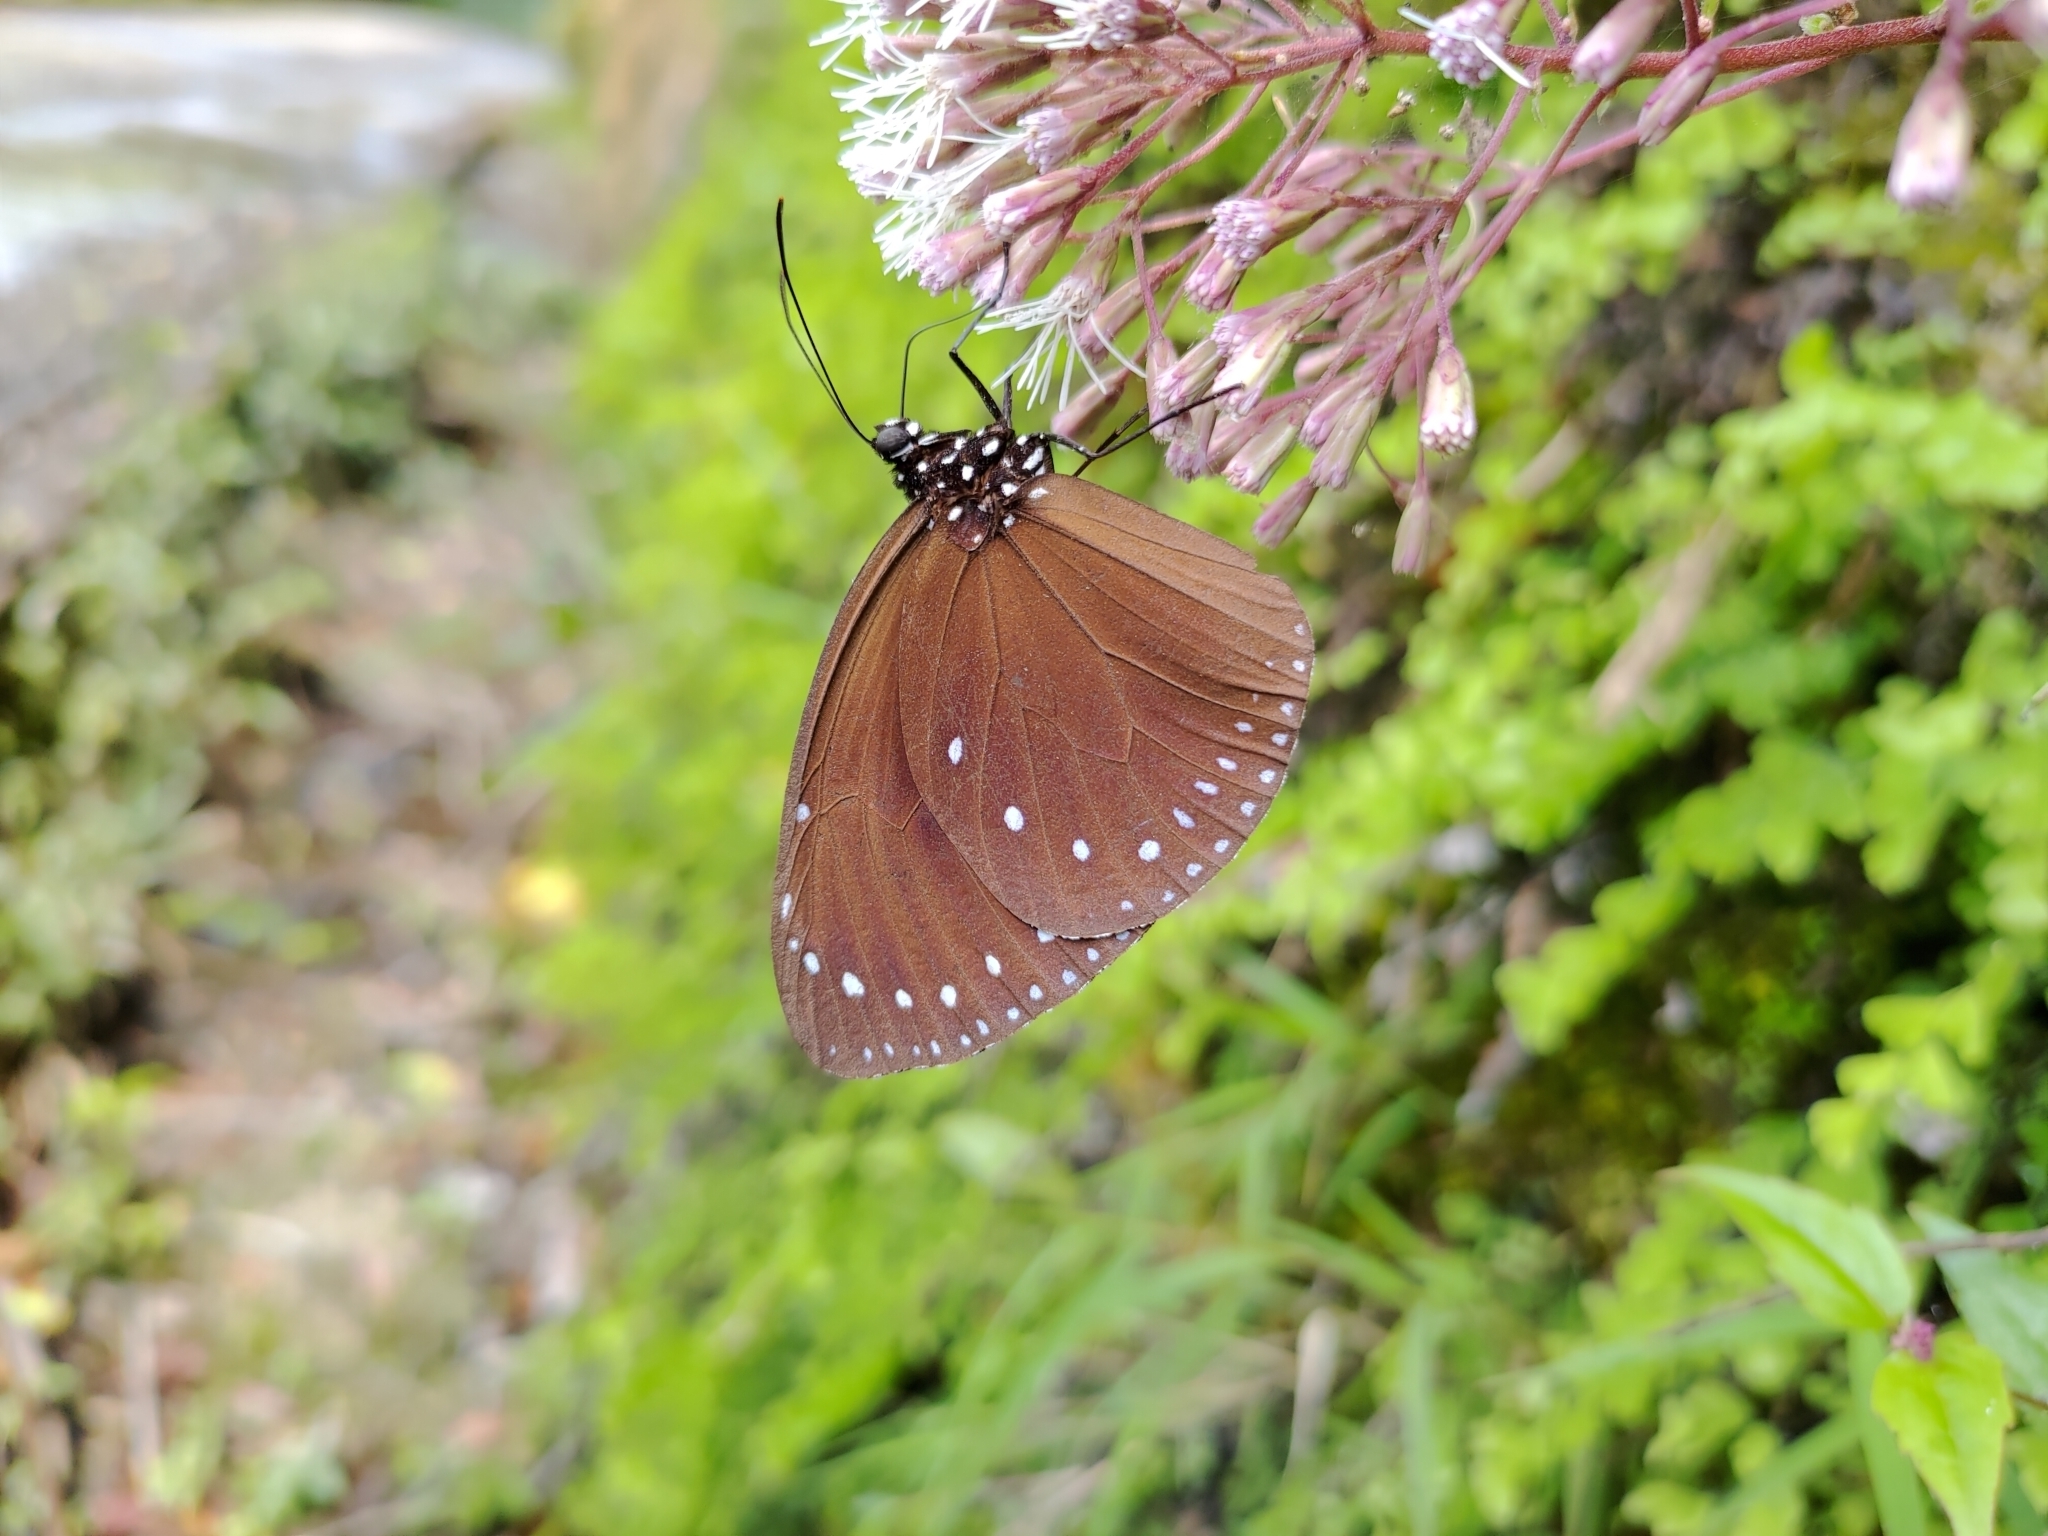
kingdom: Animalia
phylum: Arthropoda
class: Insecta
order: Lepidoptera
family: Nymphalidae
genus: Euploea
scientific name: Euploea tulliolus
